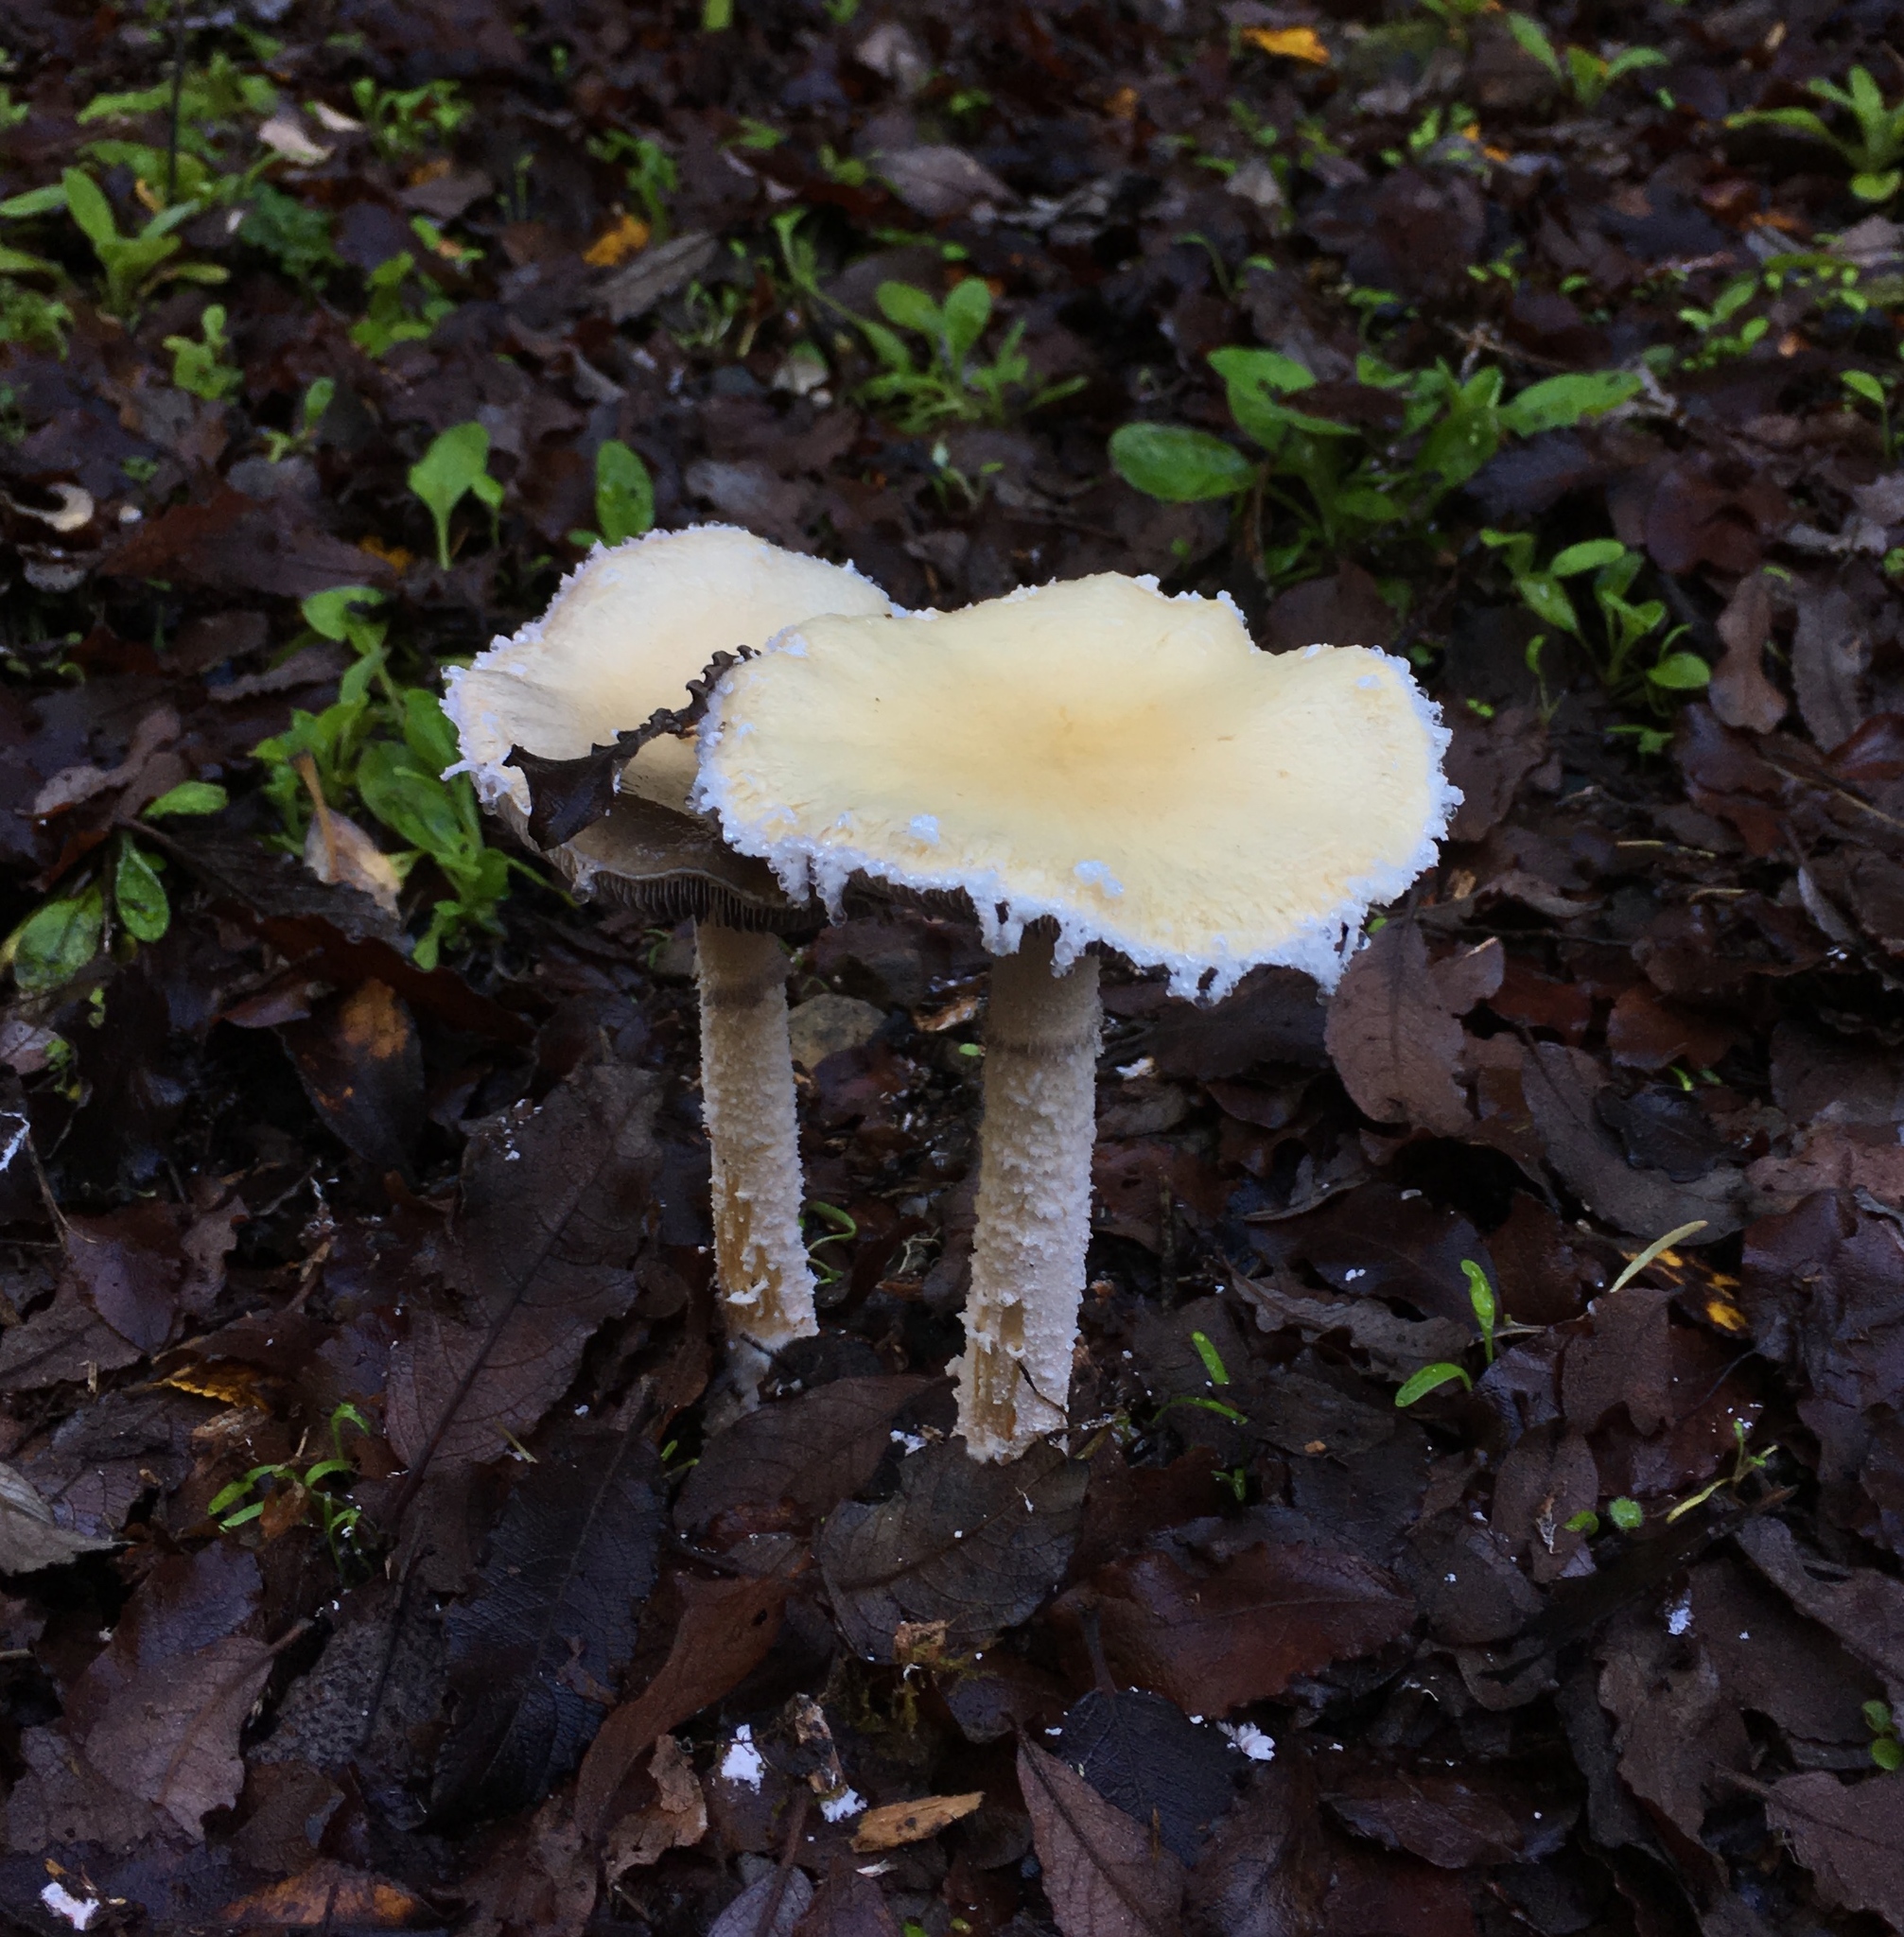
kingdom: Fungi
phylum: Basidiomycota
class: Agaricomycetes
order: Agaricales
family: Strophariaceae
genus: Stropharia
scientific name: Stropharia ambigua
